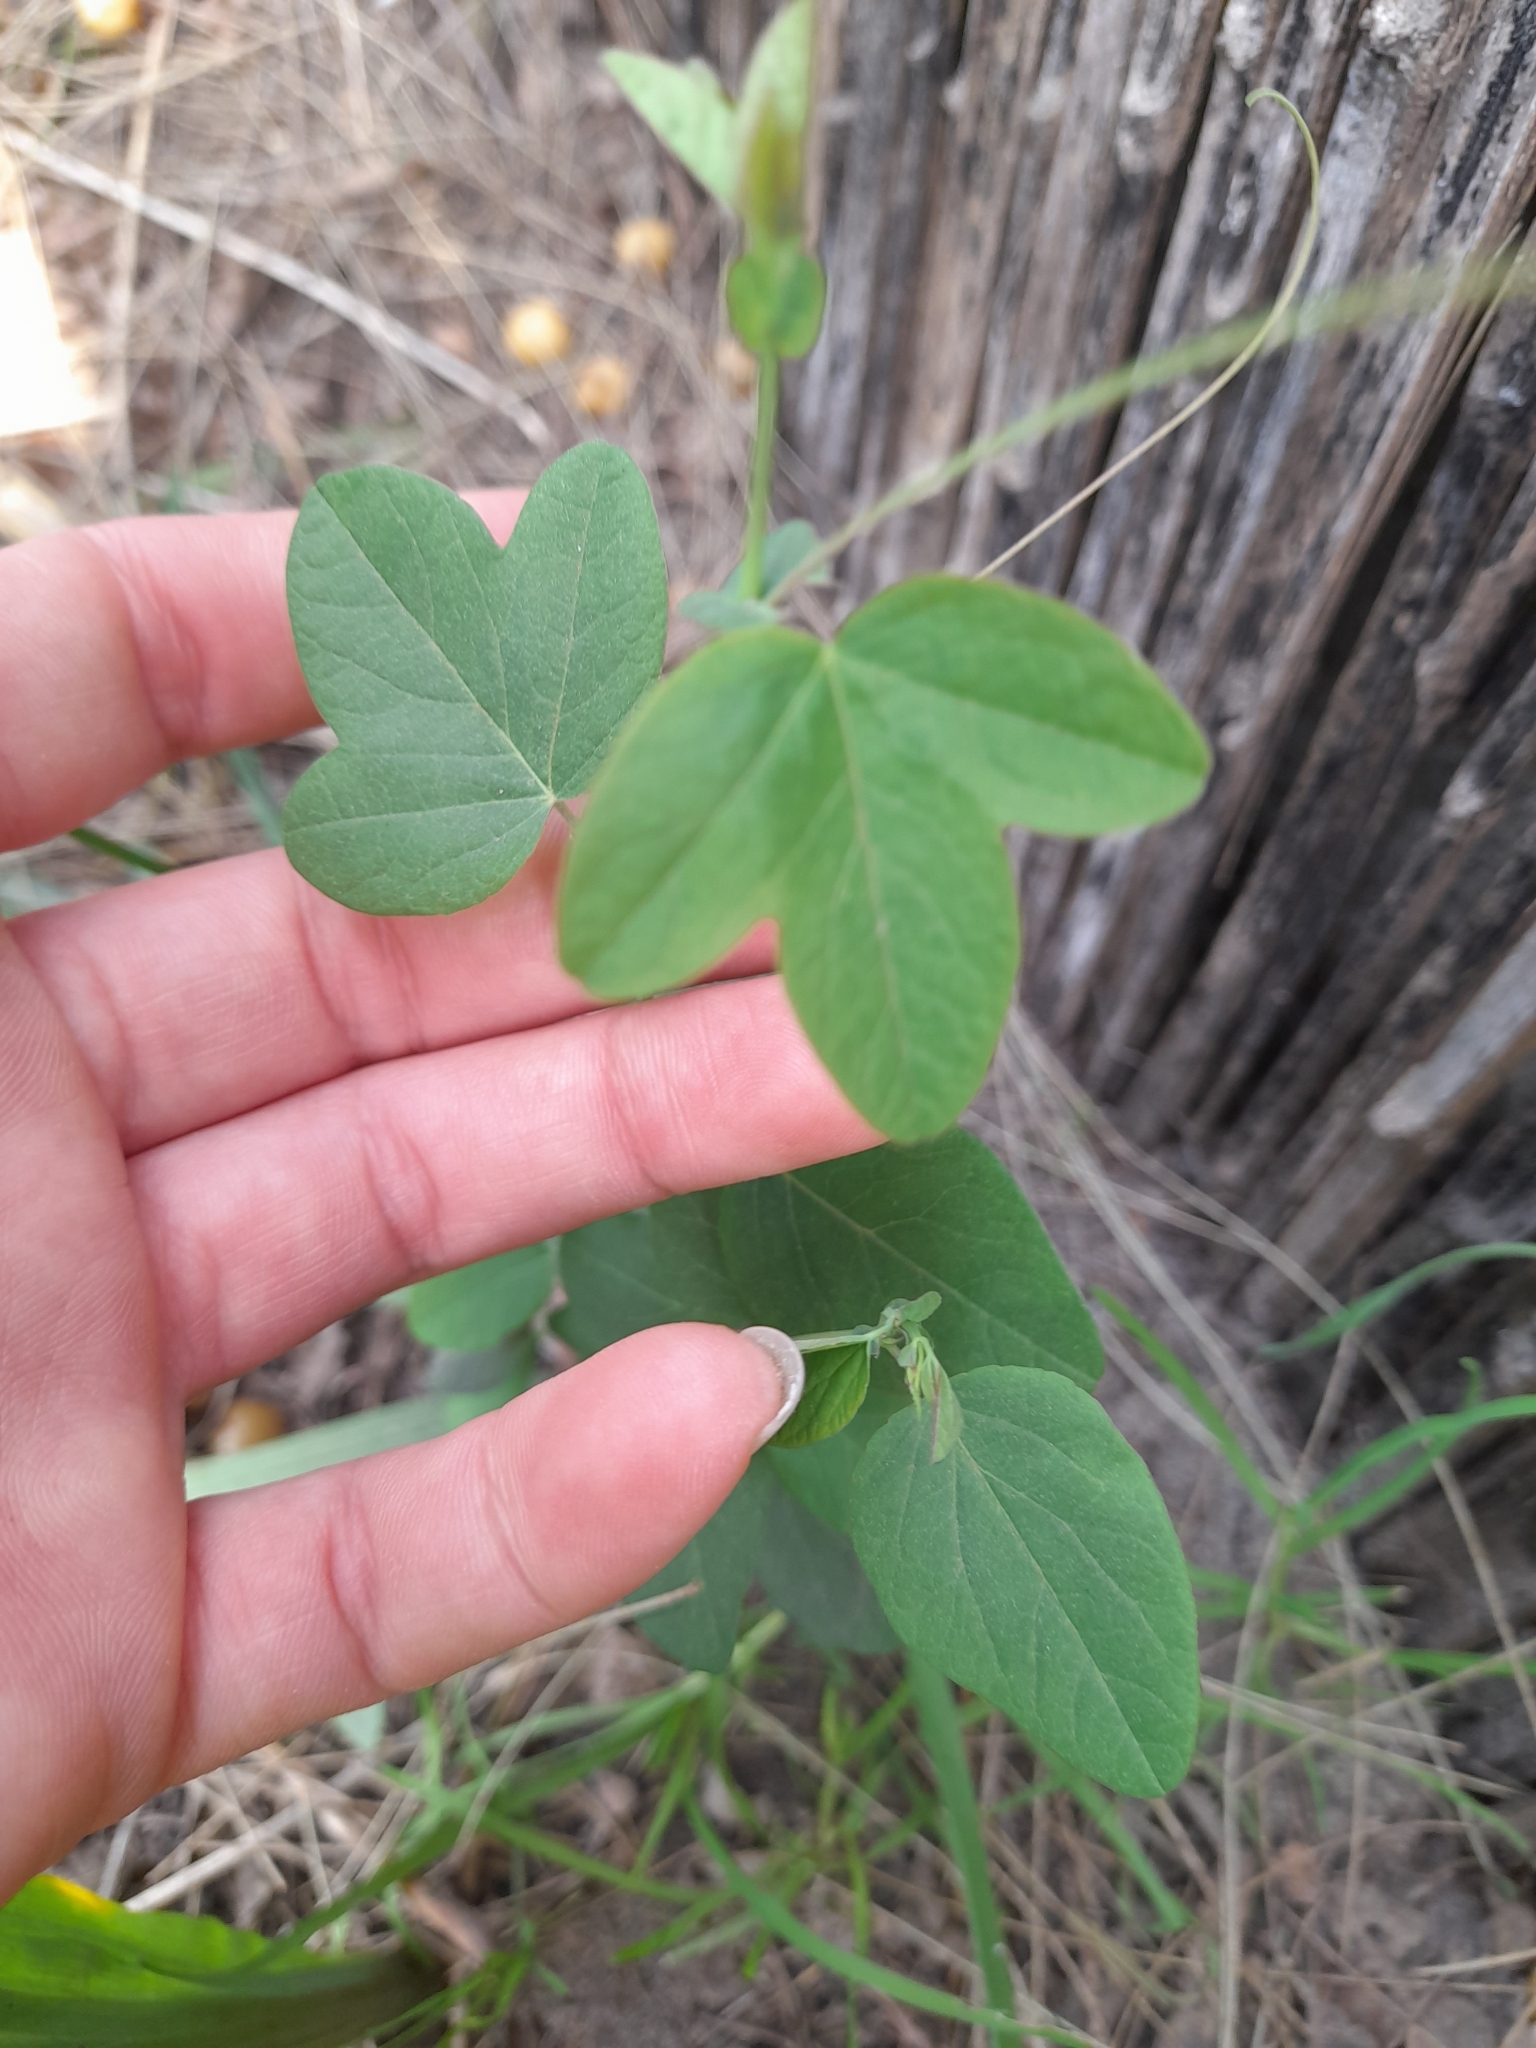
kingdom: Plantae
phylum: Tracheophyta
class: Magnoliopsida
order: Malpighiales
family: Passifloraceae
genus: Passiflora
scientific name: Passiflora caerulea
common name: Blue passionflower
